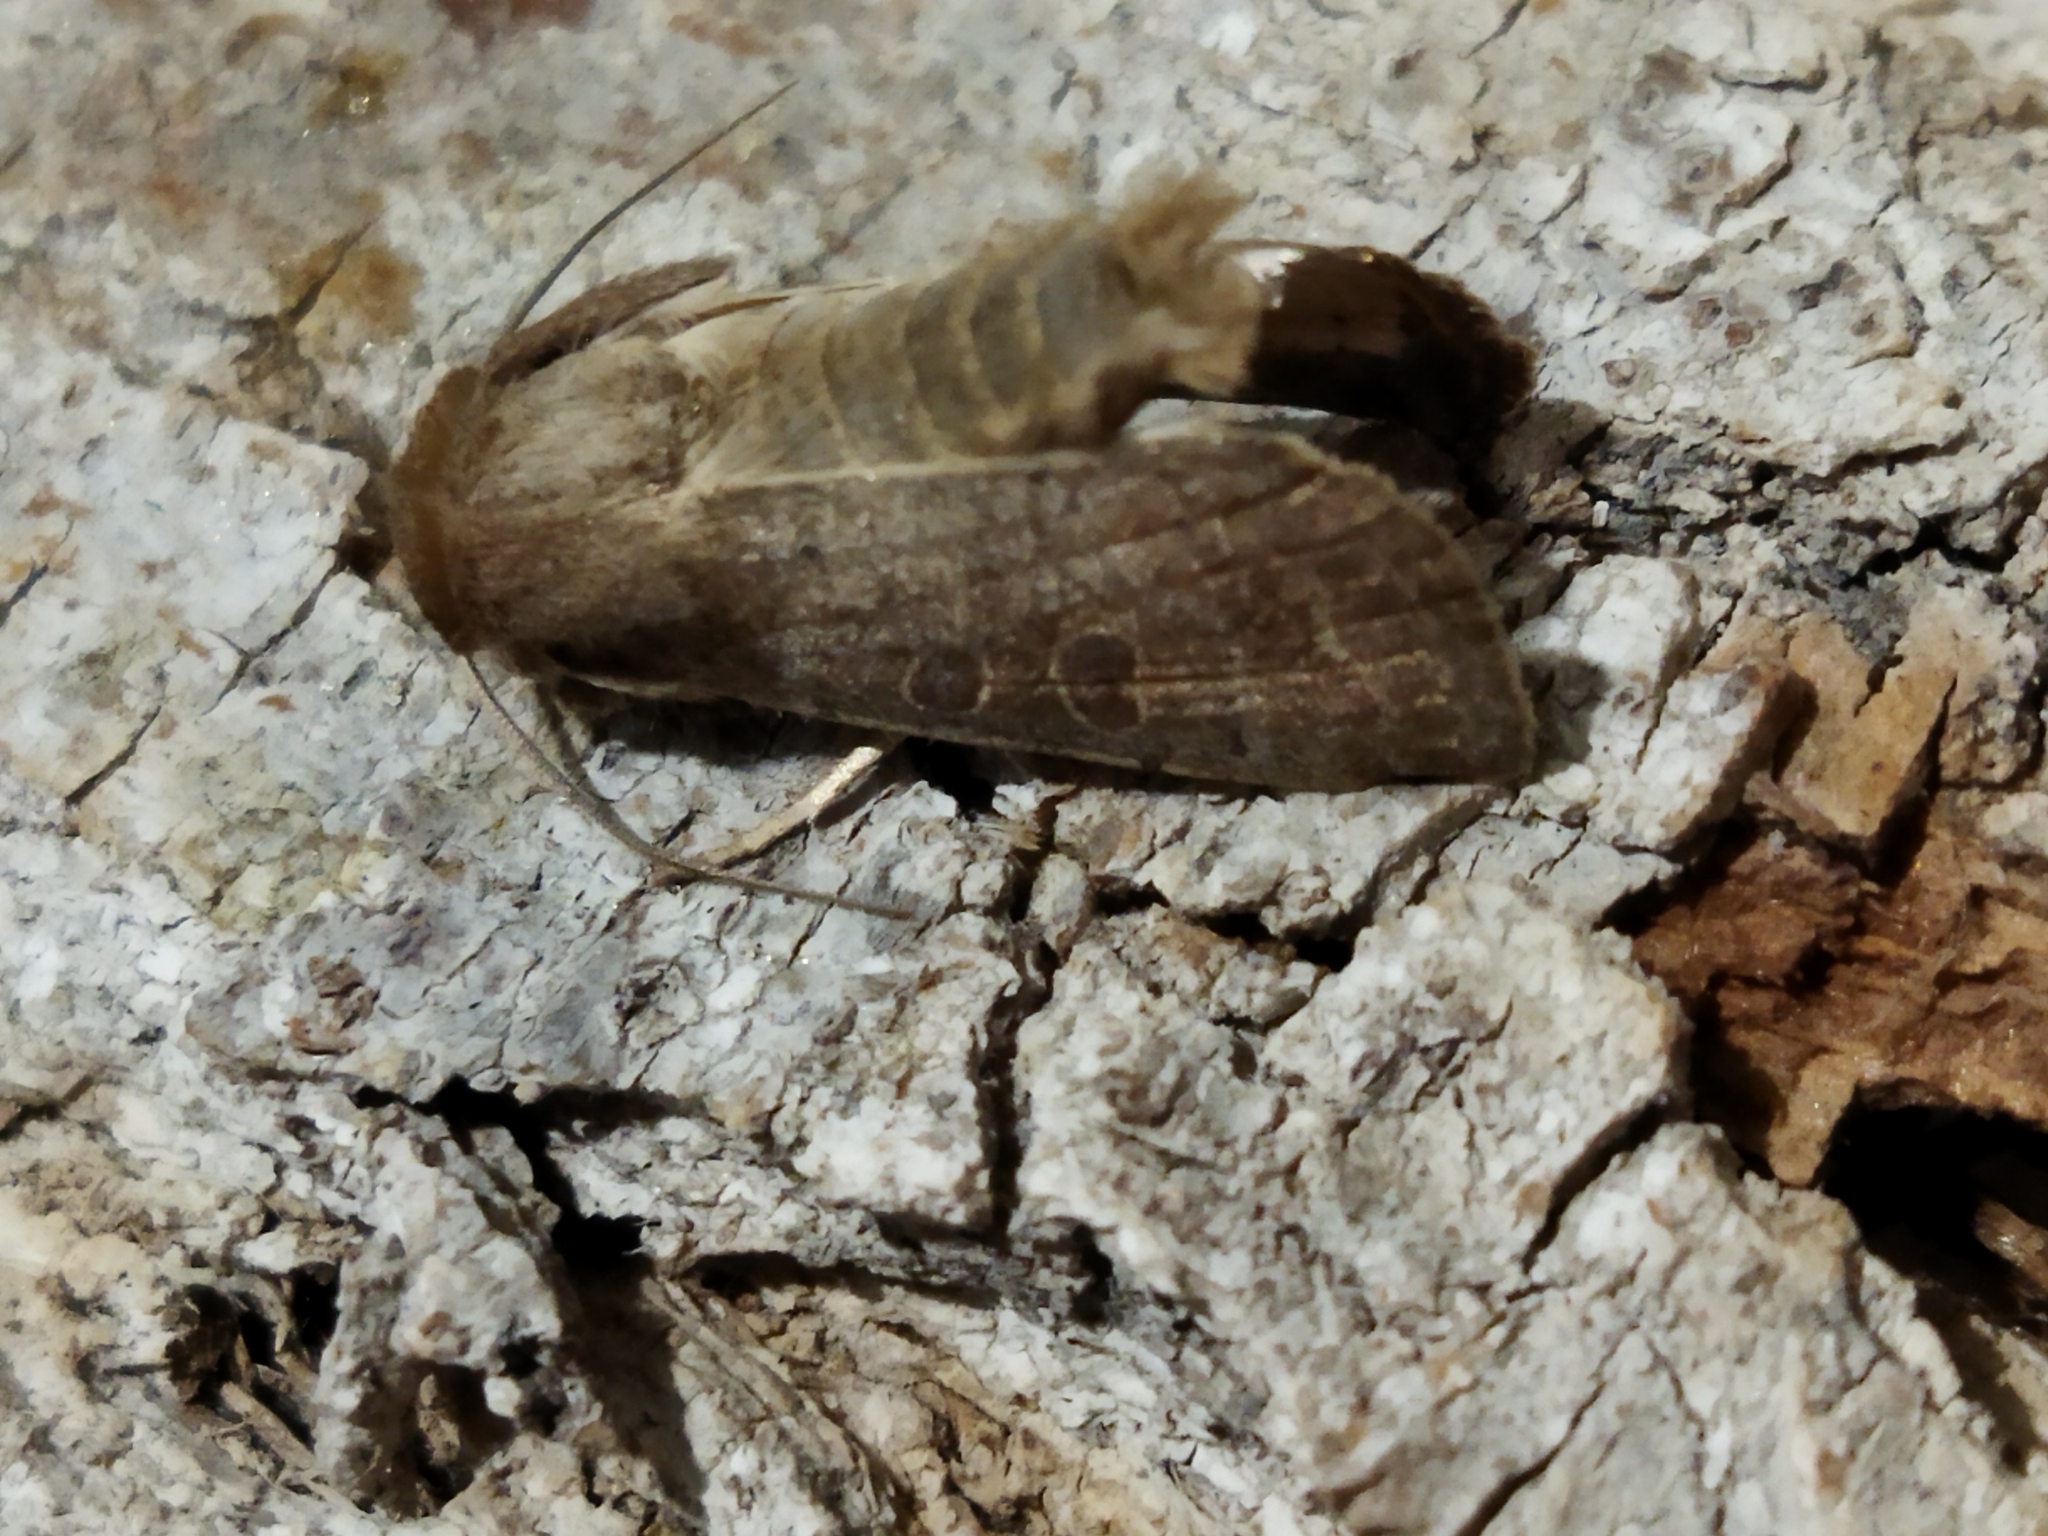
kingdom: Animalia
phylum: Arthropoda
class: Insecta
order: Lepidoptera
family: Noctuidae
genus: Hoplodrina
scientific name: Hoplodrina ambigua
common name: Vine's rustic
